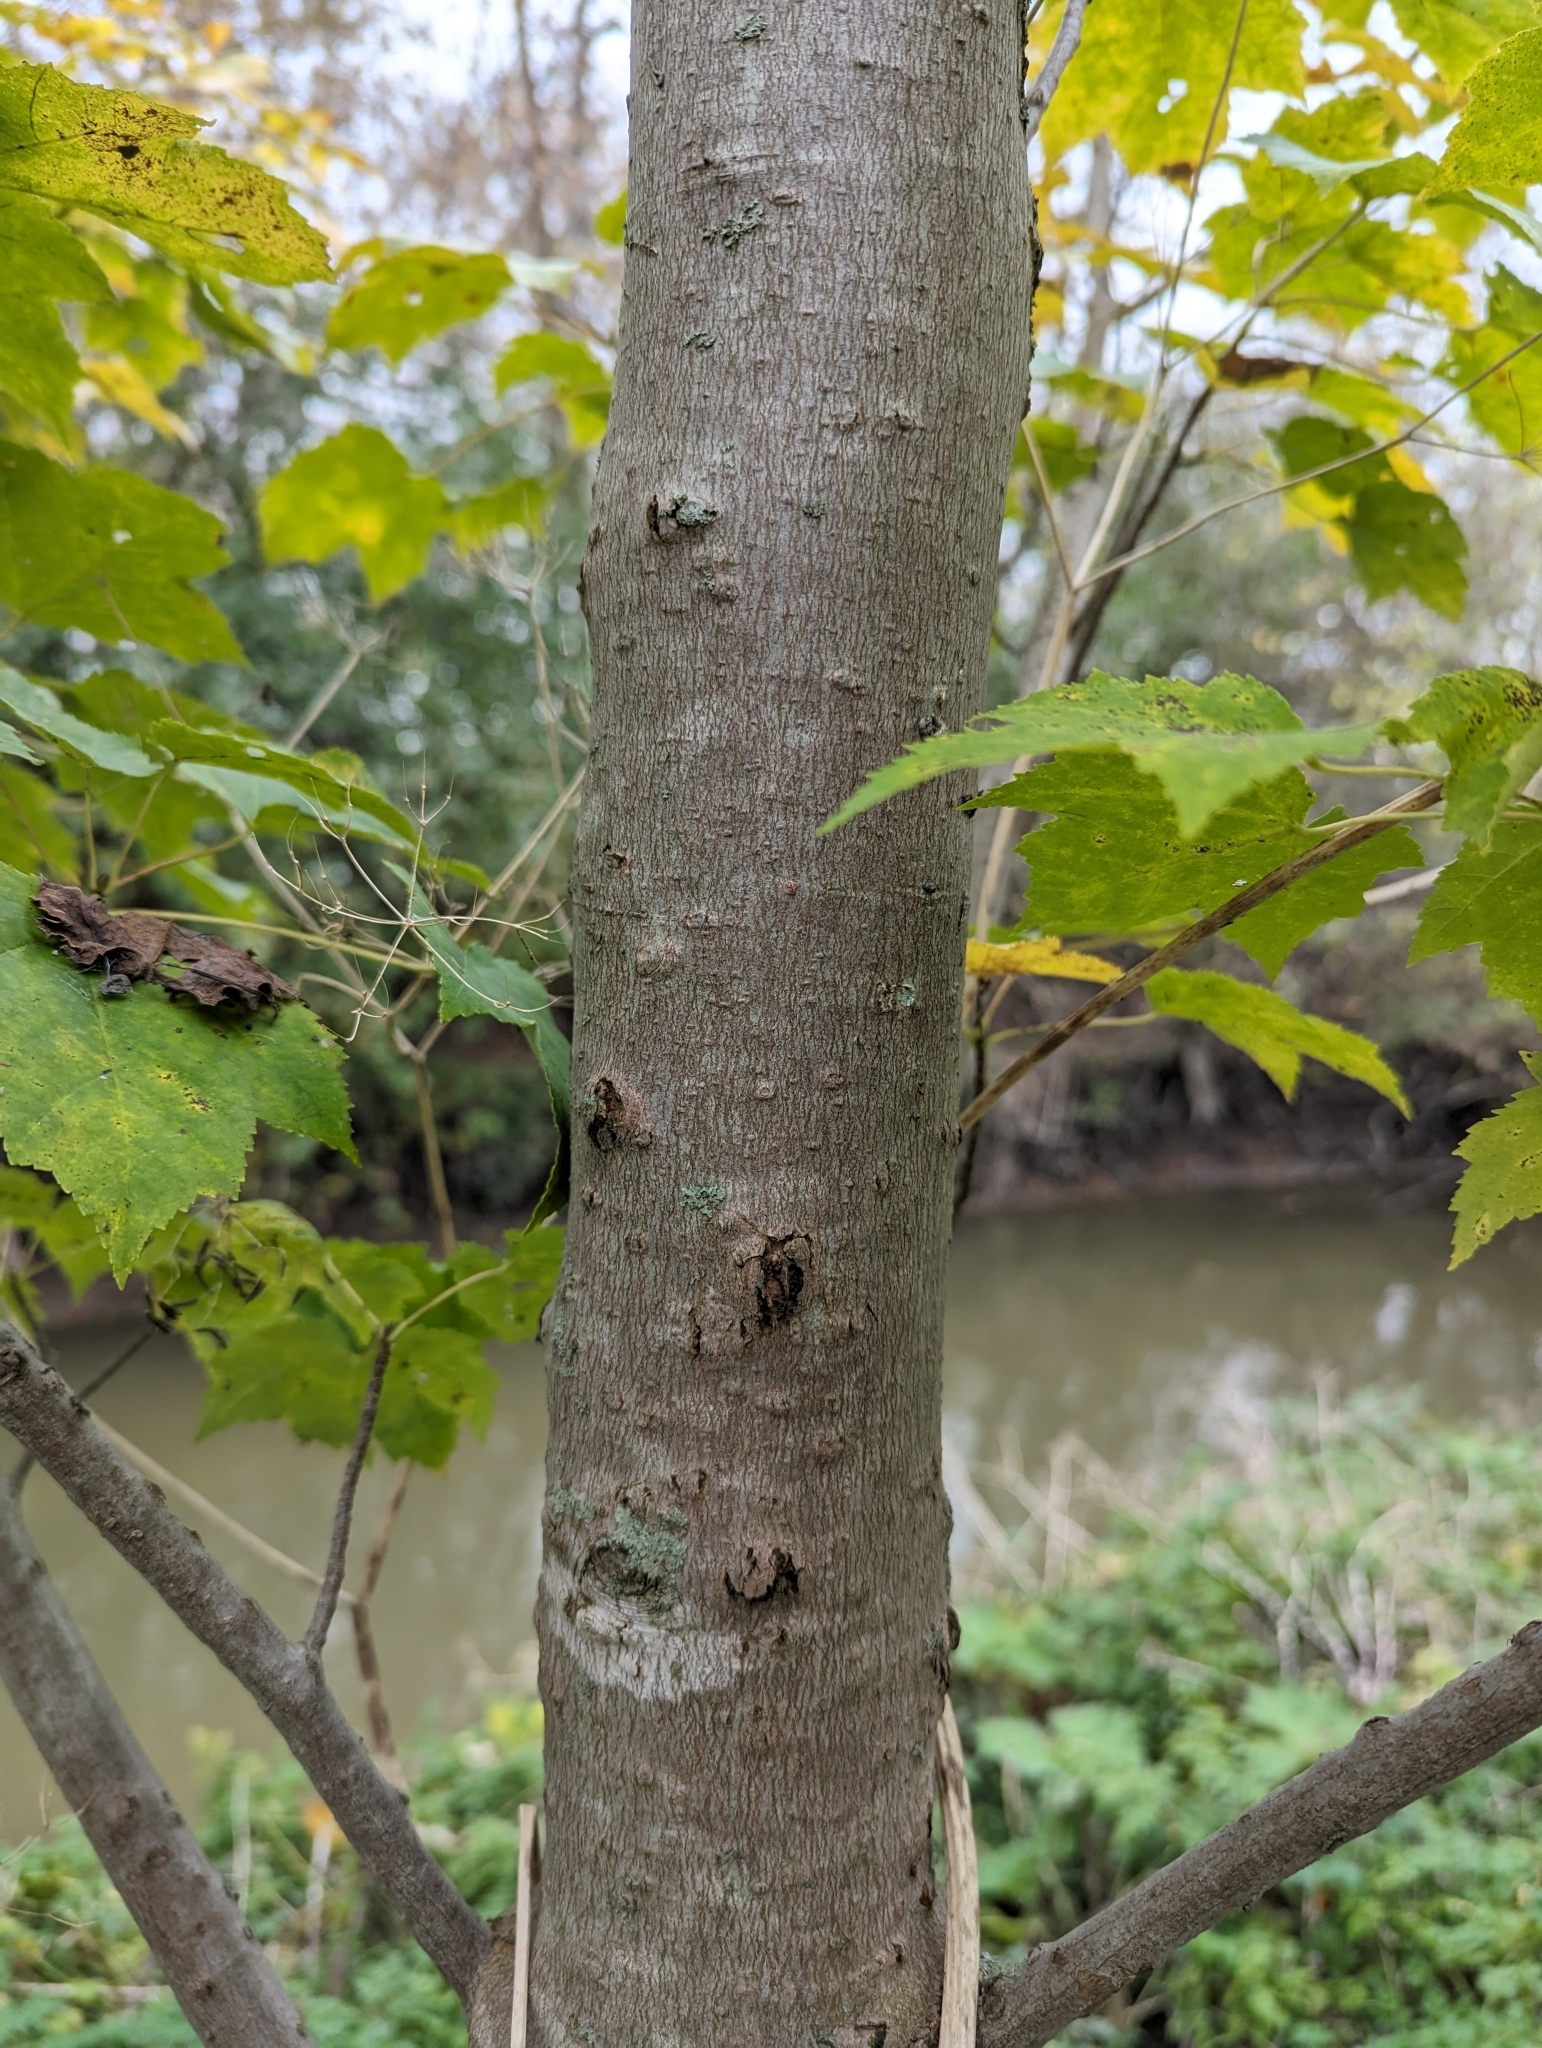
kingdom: Plantae
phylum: Tracheophyta
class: Magnoliopsida
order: Sapindales
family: Sapindaceae
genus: Acer
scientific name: Acer rubrum
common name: Red maple
